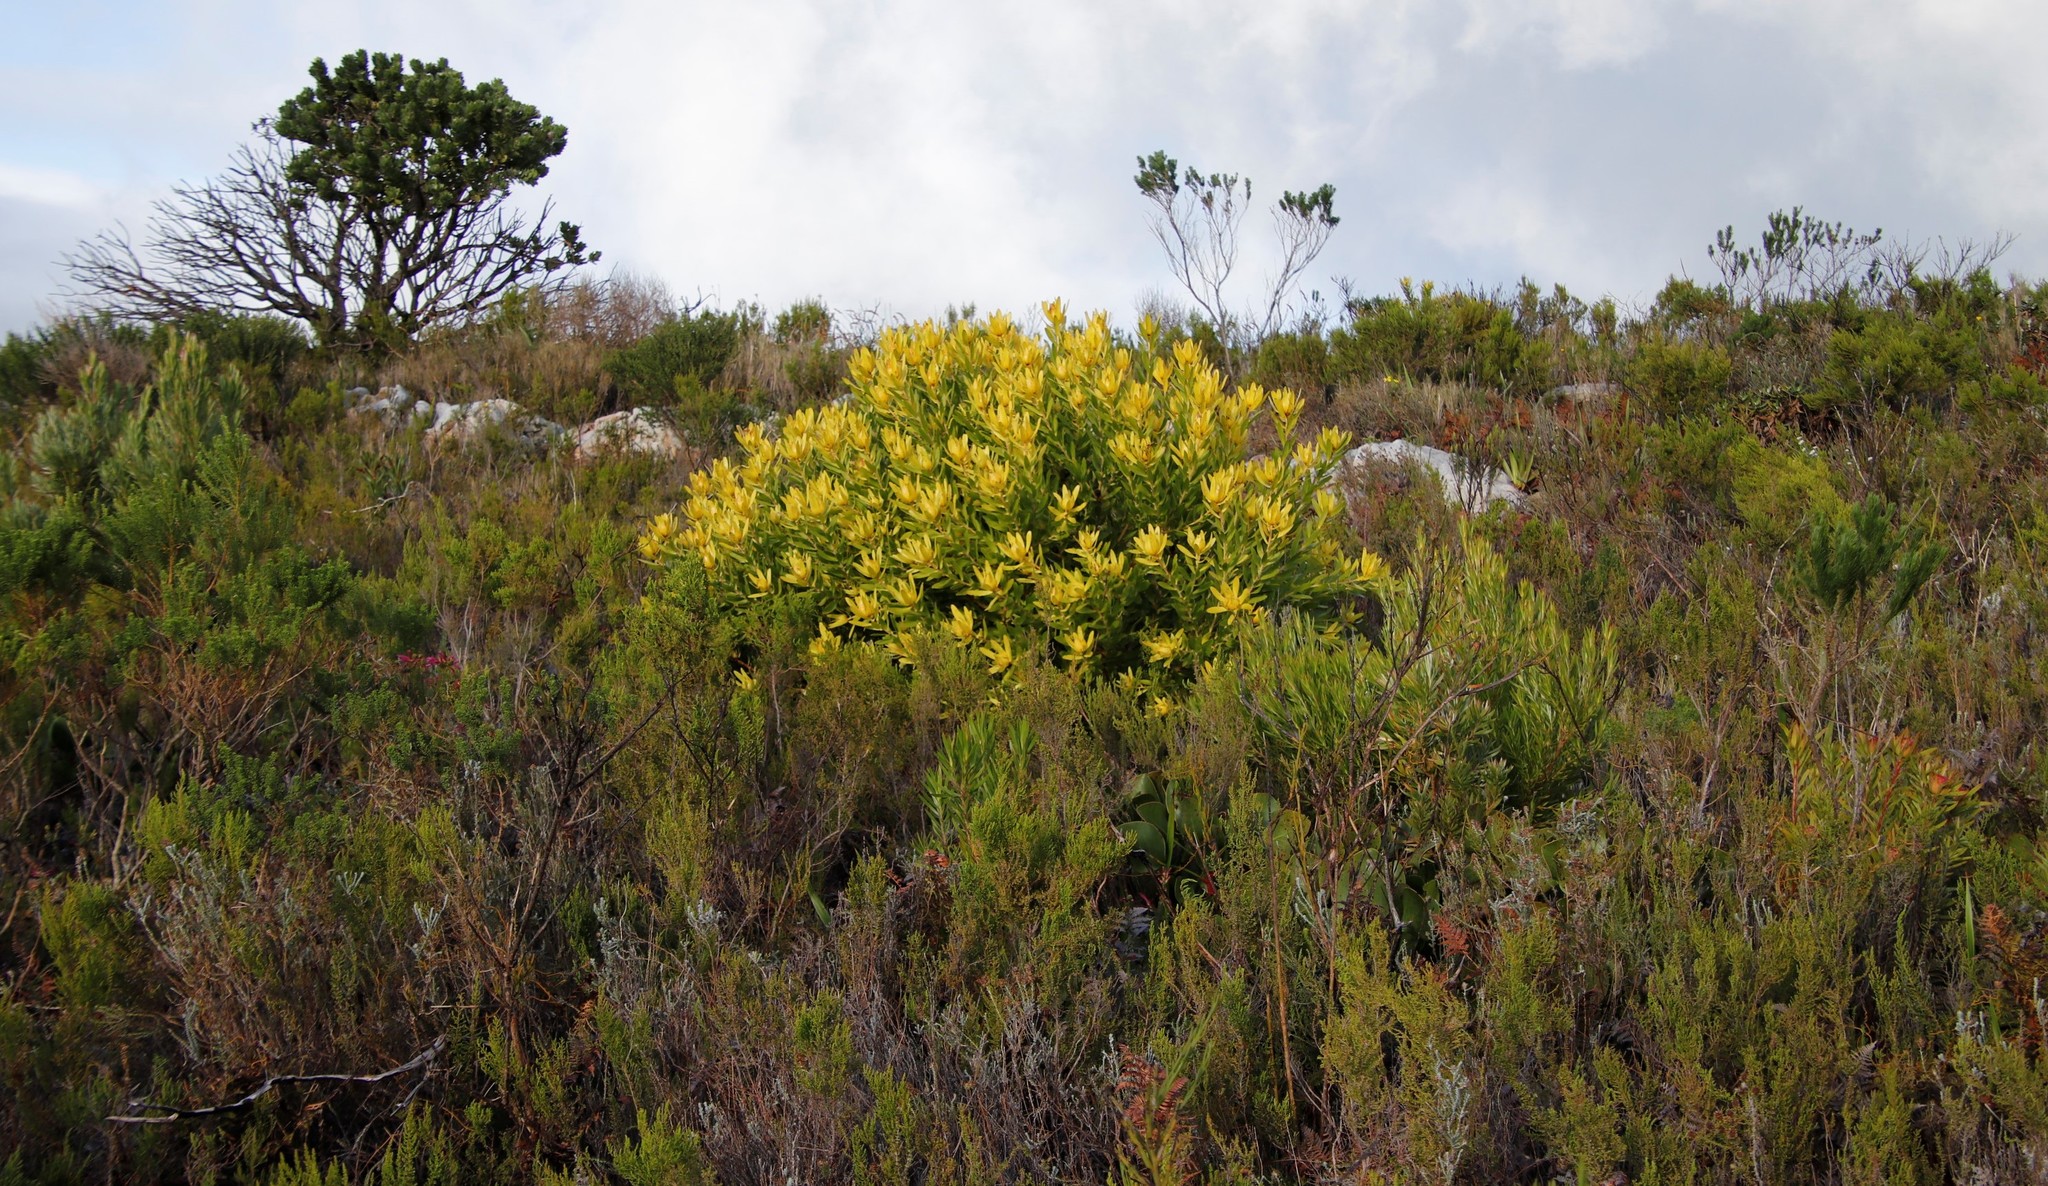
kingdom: Plantae
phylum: Tracheophyta
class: Magnoliopsida
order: Proteales
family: Proteaceae
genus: Leucadendron
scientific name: Leucadendron laureolum
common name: Golden sunshinebush
